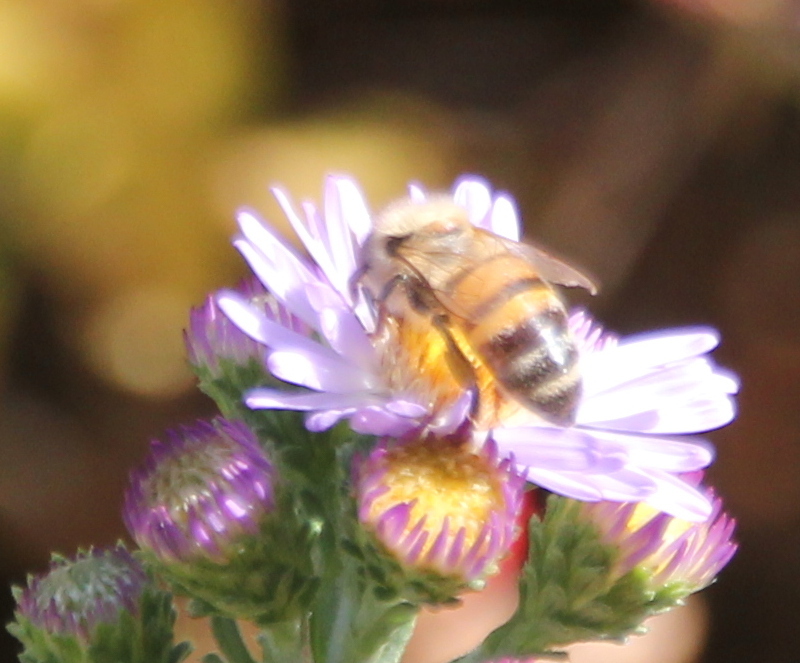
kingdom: Animalia
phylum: Arthropoda
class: Insecta
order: Hymenoptera
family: Apidae
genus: Apis
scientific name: Apis mellifera
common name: Honey bee
